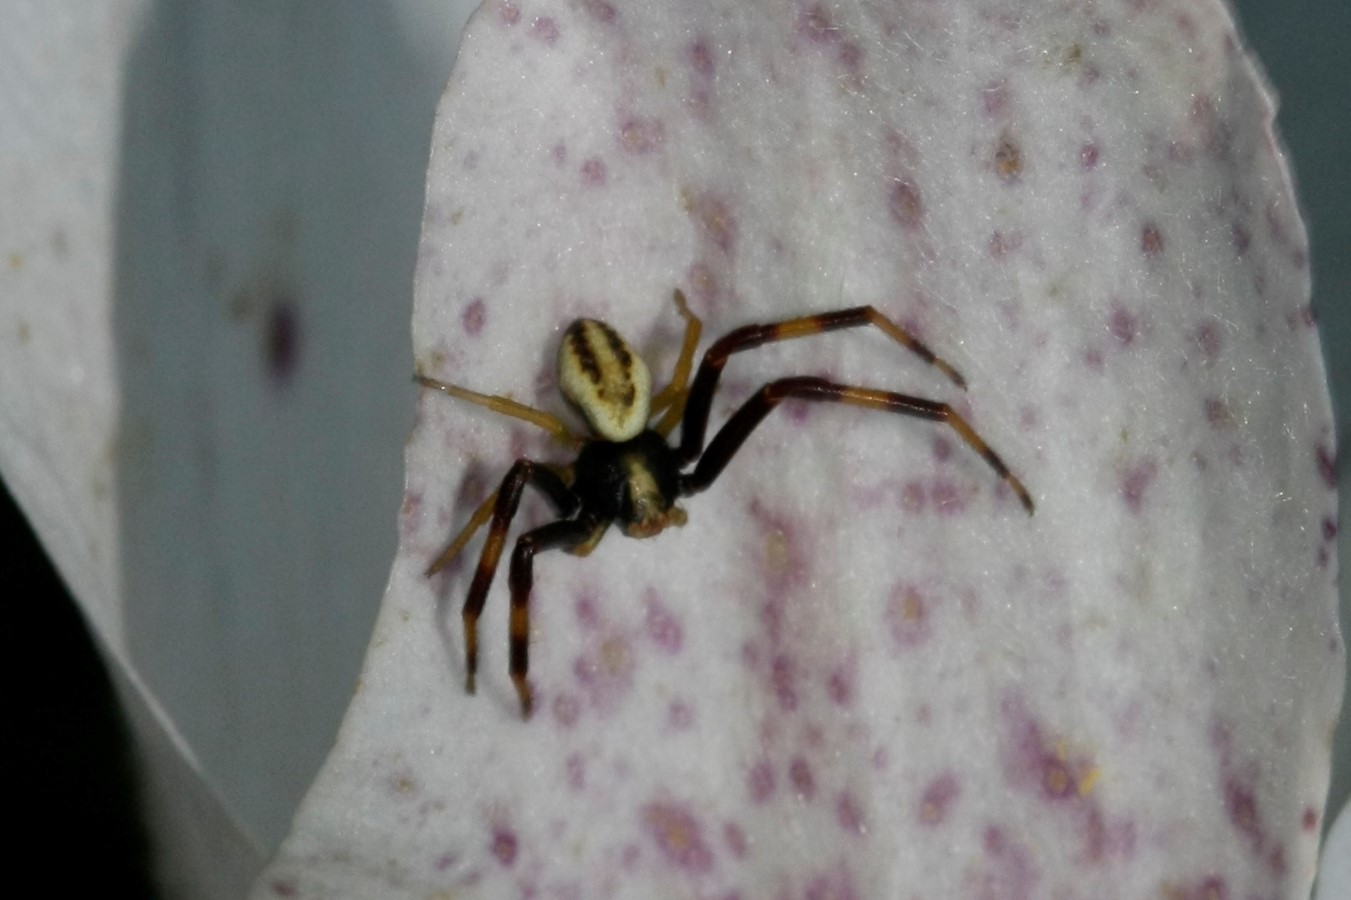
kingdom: Animalia
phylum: Arthropoda
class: Arachnida
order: Araneae
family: Thomisidae
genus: Misumena
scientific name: Misumena vatia
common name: Goldenrod crab spider
